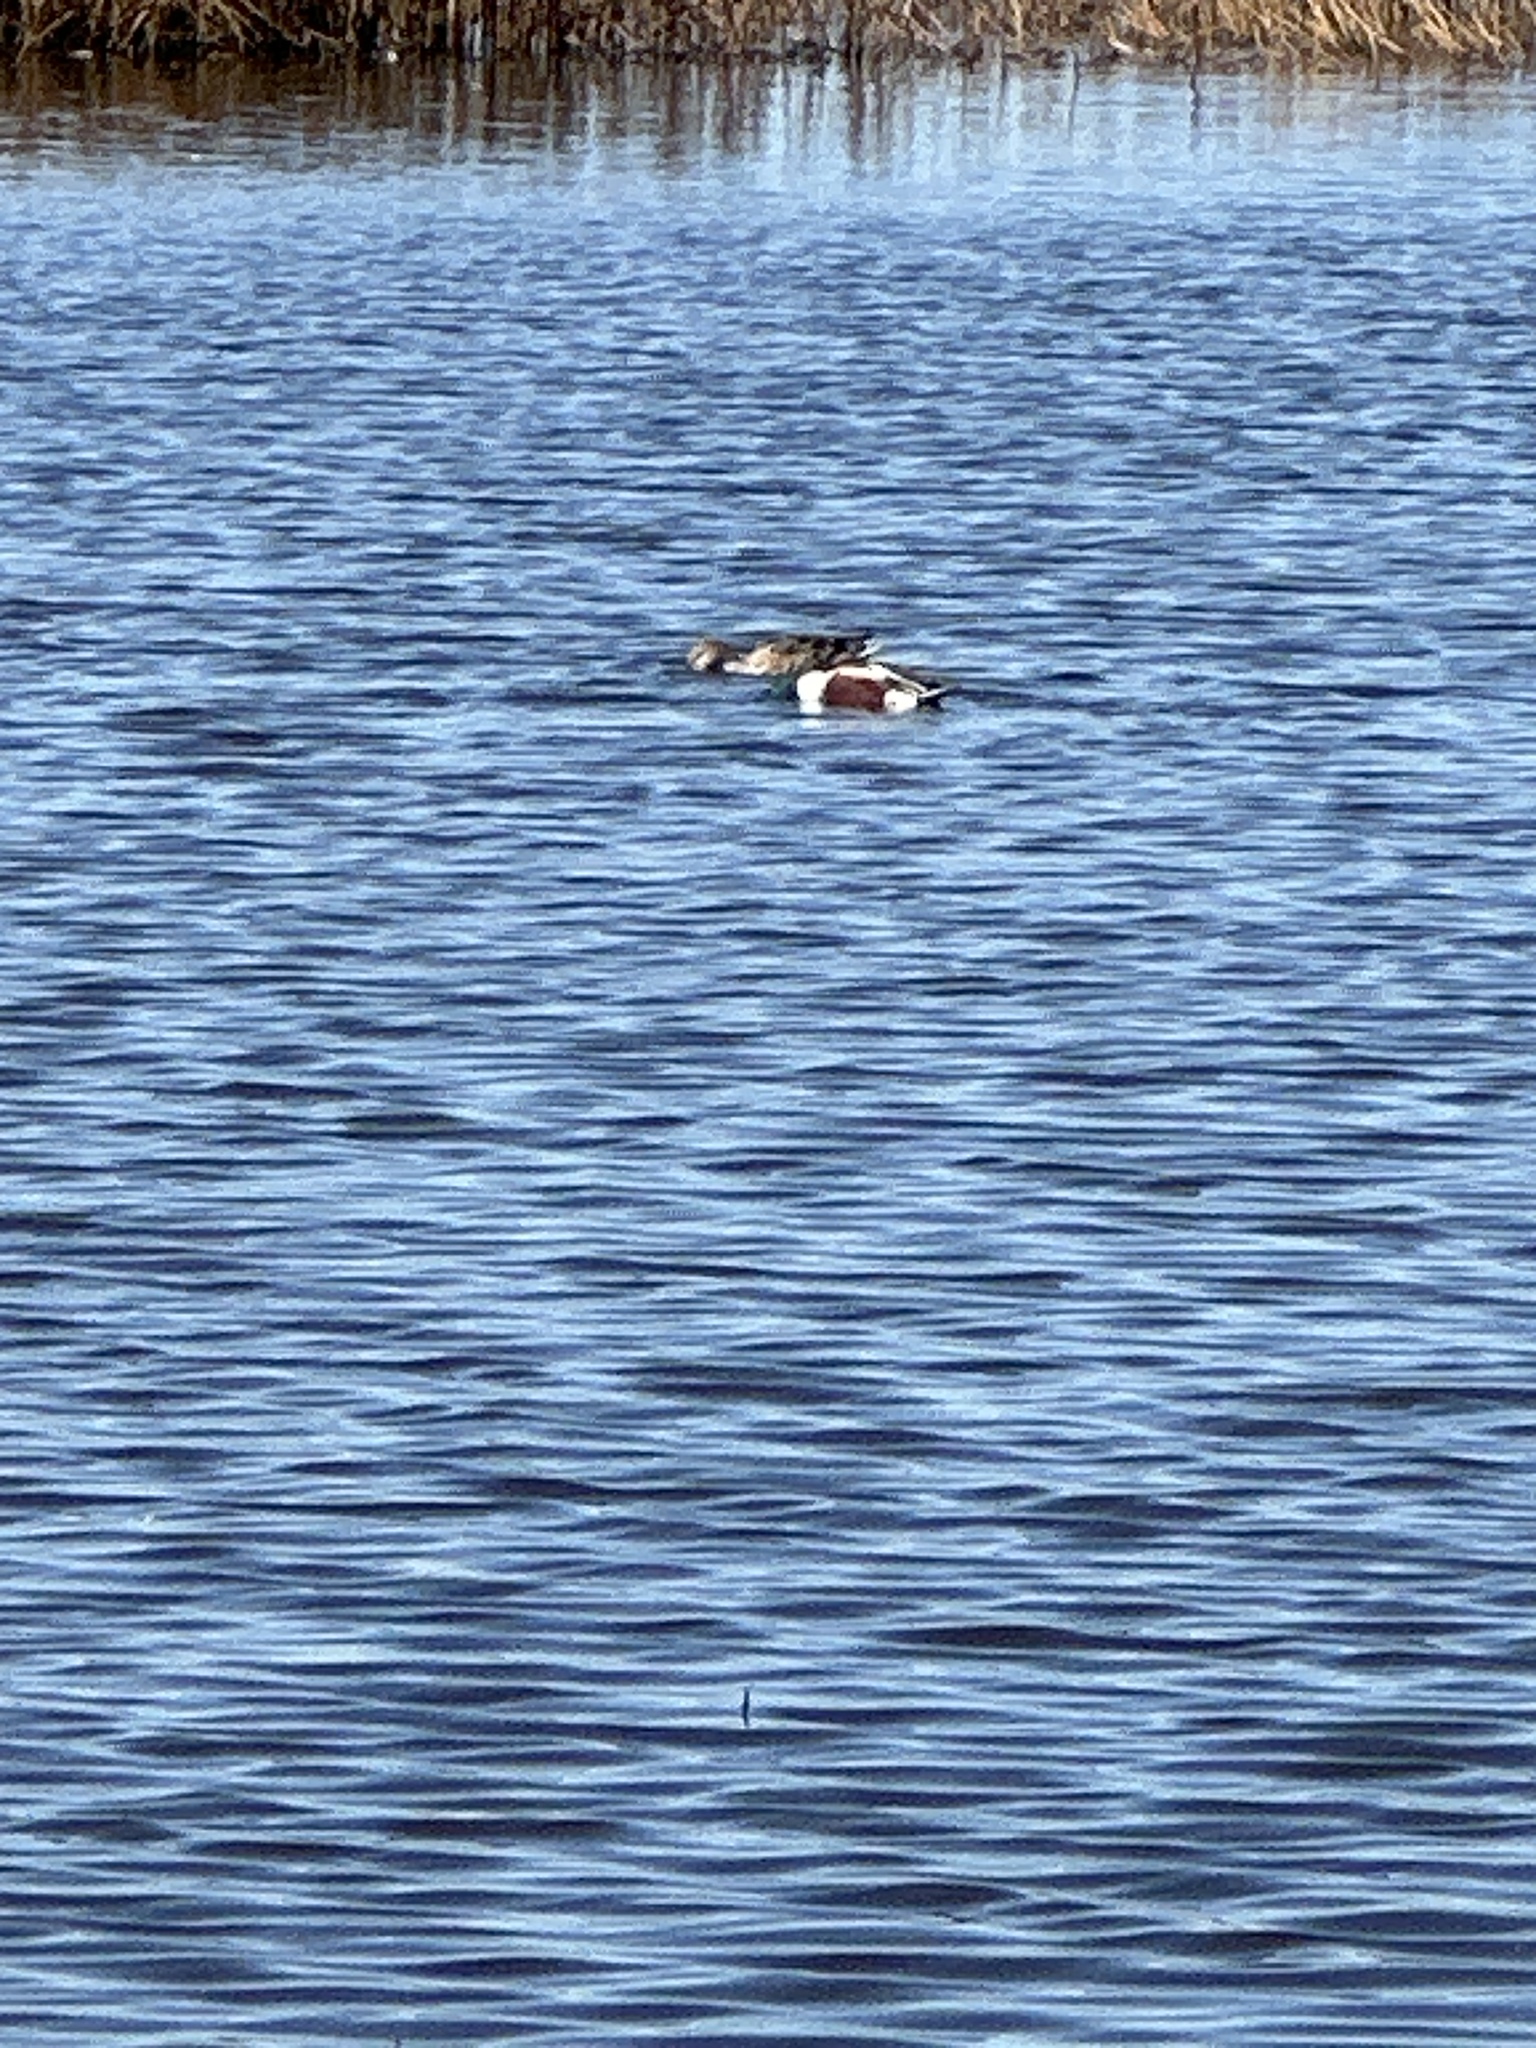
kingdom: Animalia
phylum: Chordata
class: Aves
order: Anseriformes
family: Anatidae
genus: Spatula
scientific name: Spatula clypeata
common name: Northern shoveler
